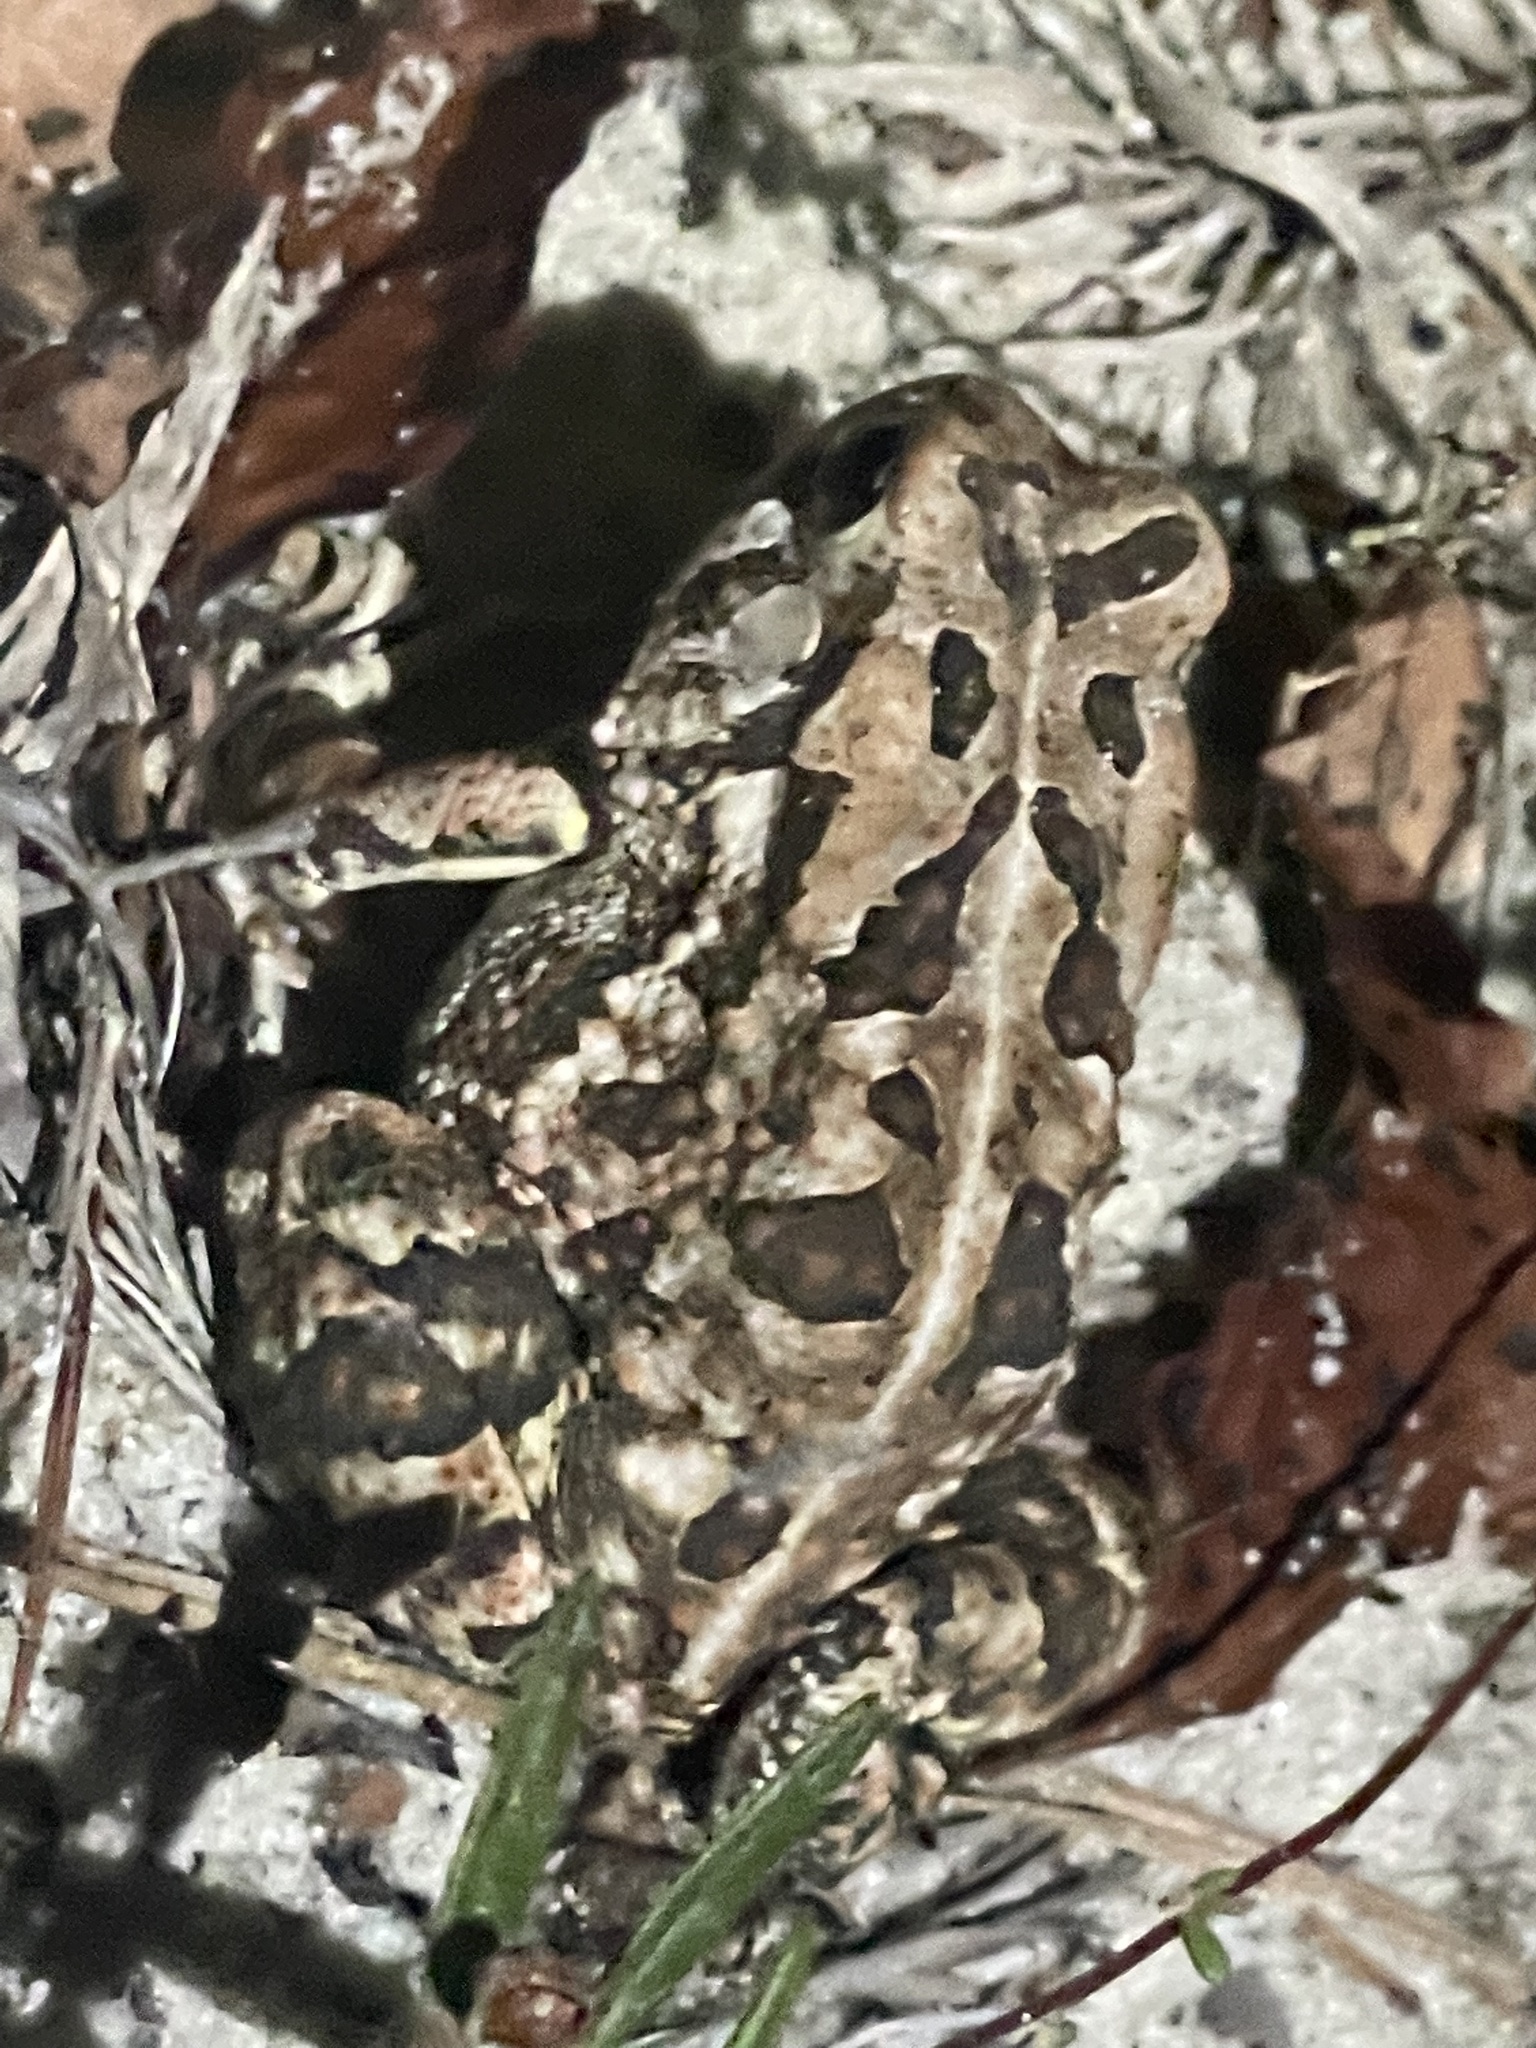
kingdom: Animalia
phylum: Chordata
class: Amphibia
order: Anura
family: Bufonidae
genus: Anaxyrus
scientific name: Anaxyrus fowleri
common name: Fowler's toad
